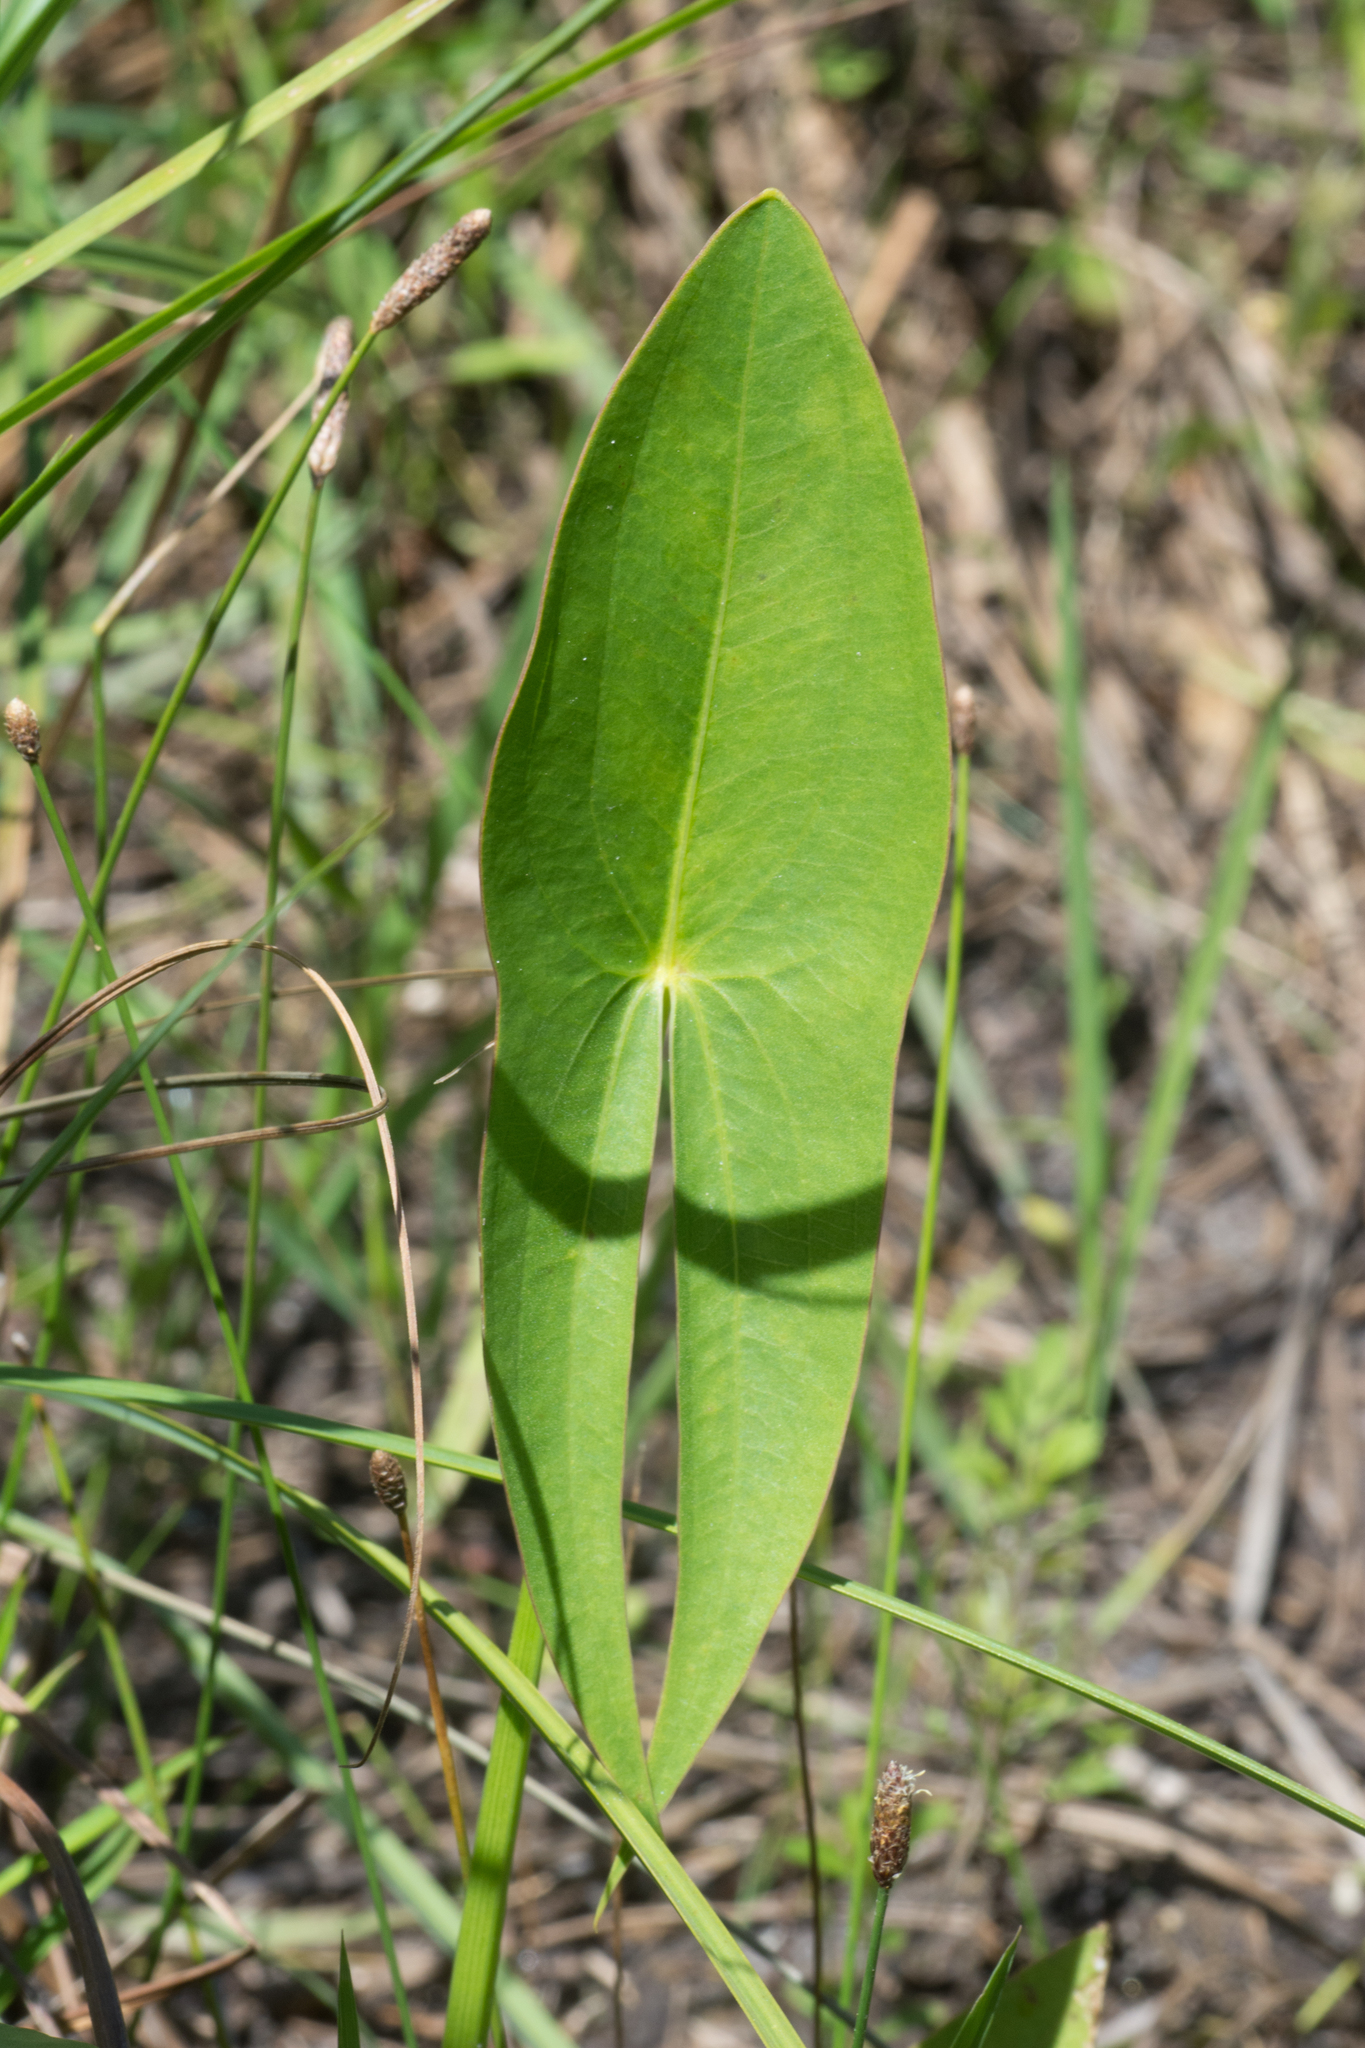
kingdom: Plantae
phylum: Tracheophyta
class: Liliopsida
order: Alismatales
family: Alismataceae
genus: Sagittaria
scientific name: Sagittaria
